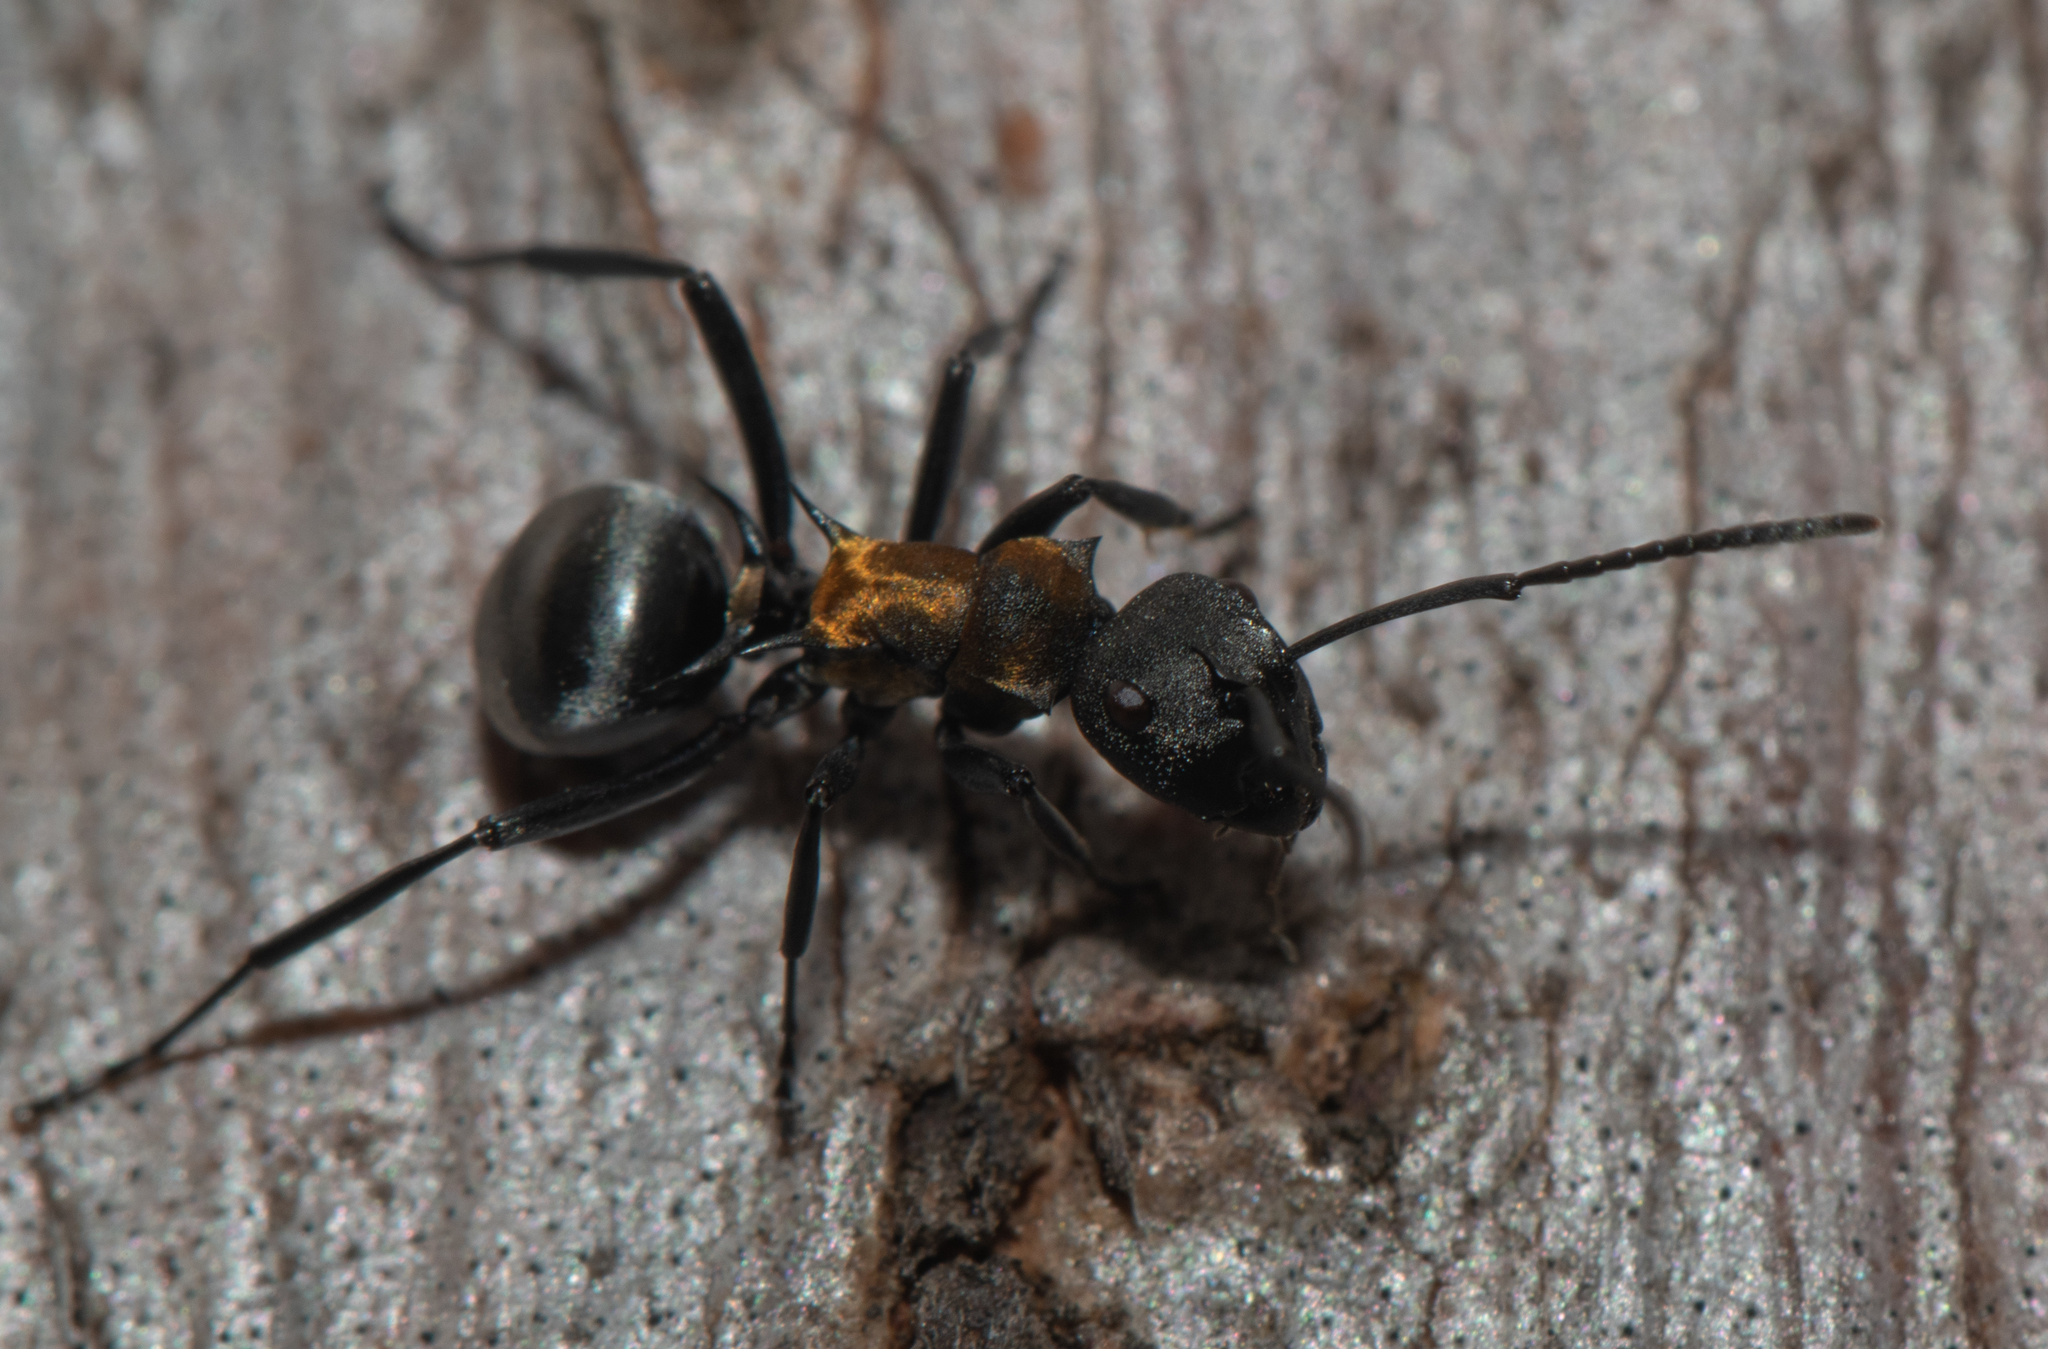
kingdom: Animalia
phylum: Arthropoda
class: Insecta
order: Hymenoptera
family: Formicidae
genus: Polyrhachis
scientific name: Polyrhachis ornata
